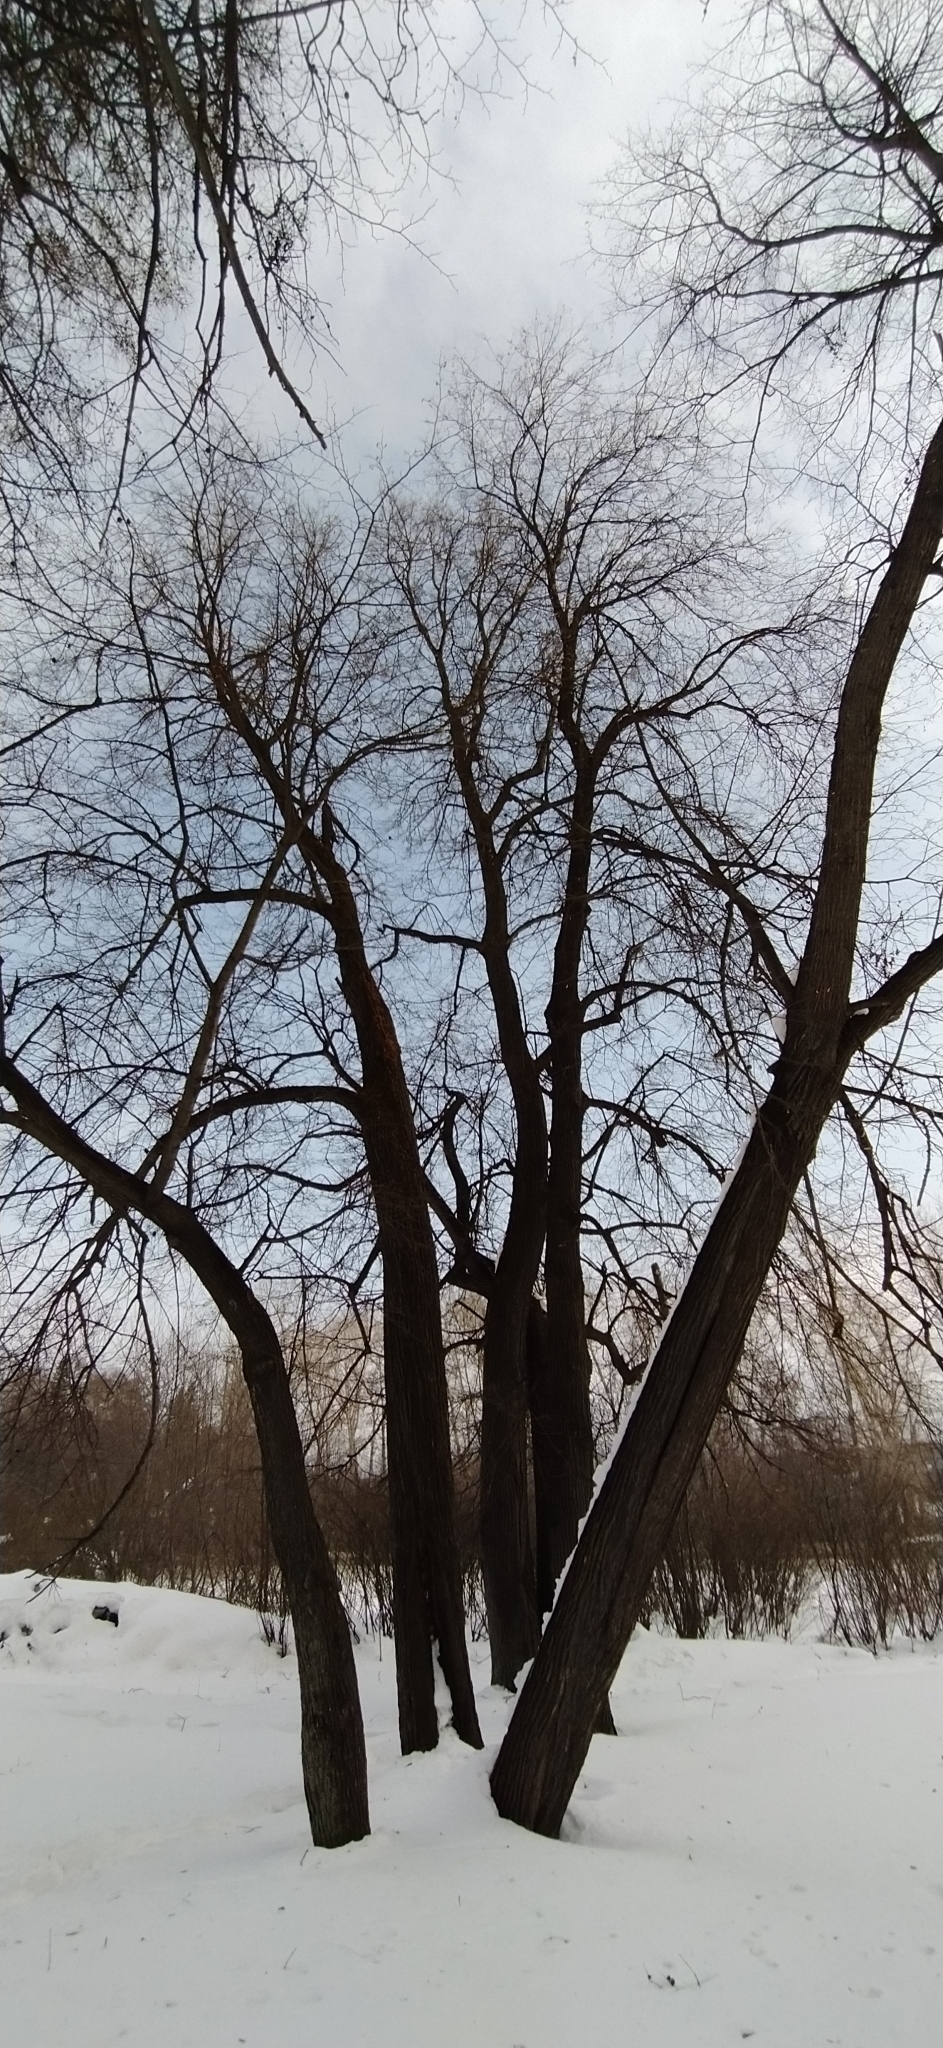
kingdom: Plantae
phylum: Tracheophyta
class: Magnoliopsida
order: Malvales
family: Malvaceae
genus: Tilia
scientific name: Tilia cordata
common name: Small-leaved lime
